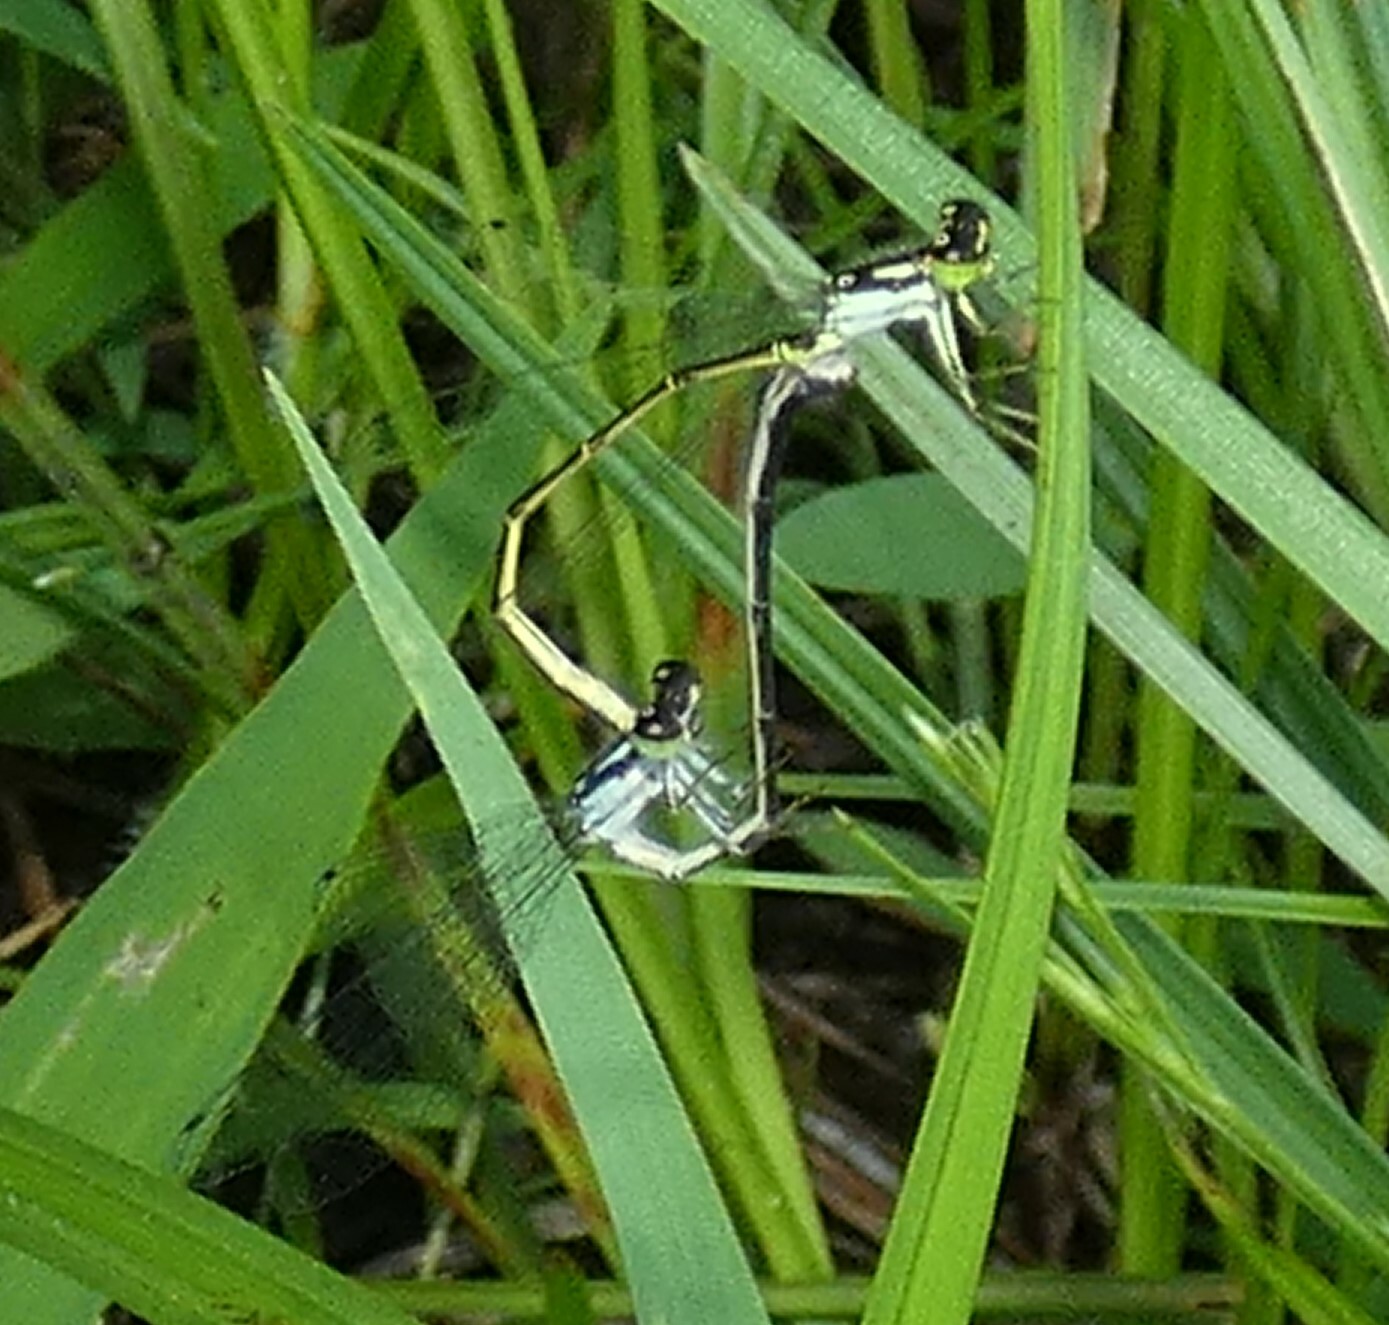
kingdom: Animalia
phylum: Arthropoda
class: Insecta
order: Odonata
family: Coenagrionidae
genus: Ischnura
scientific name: Ischnura posita
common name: Fragile forktail
